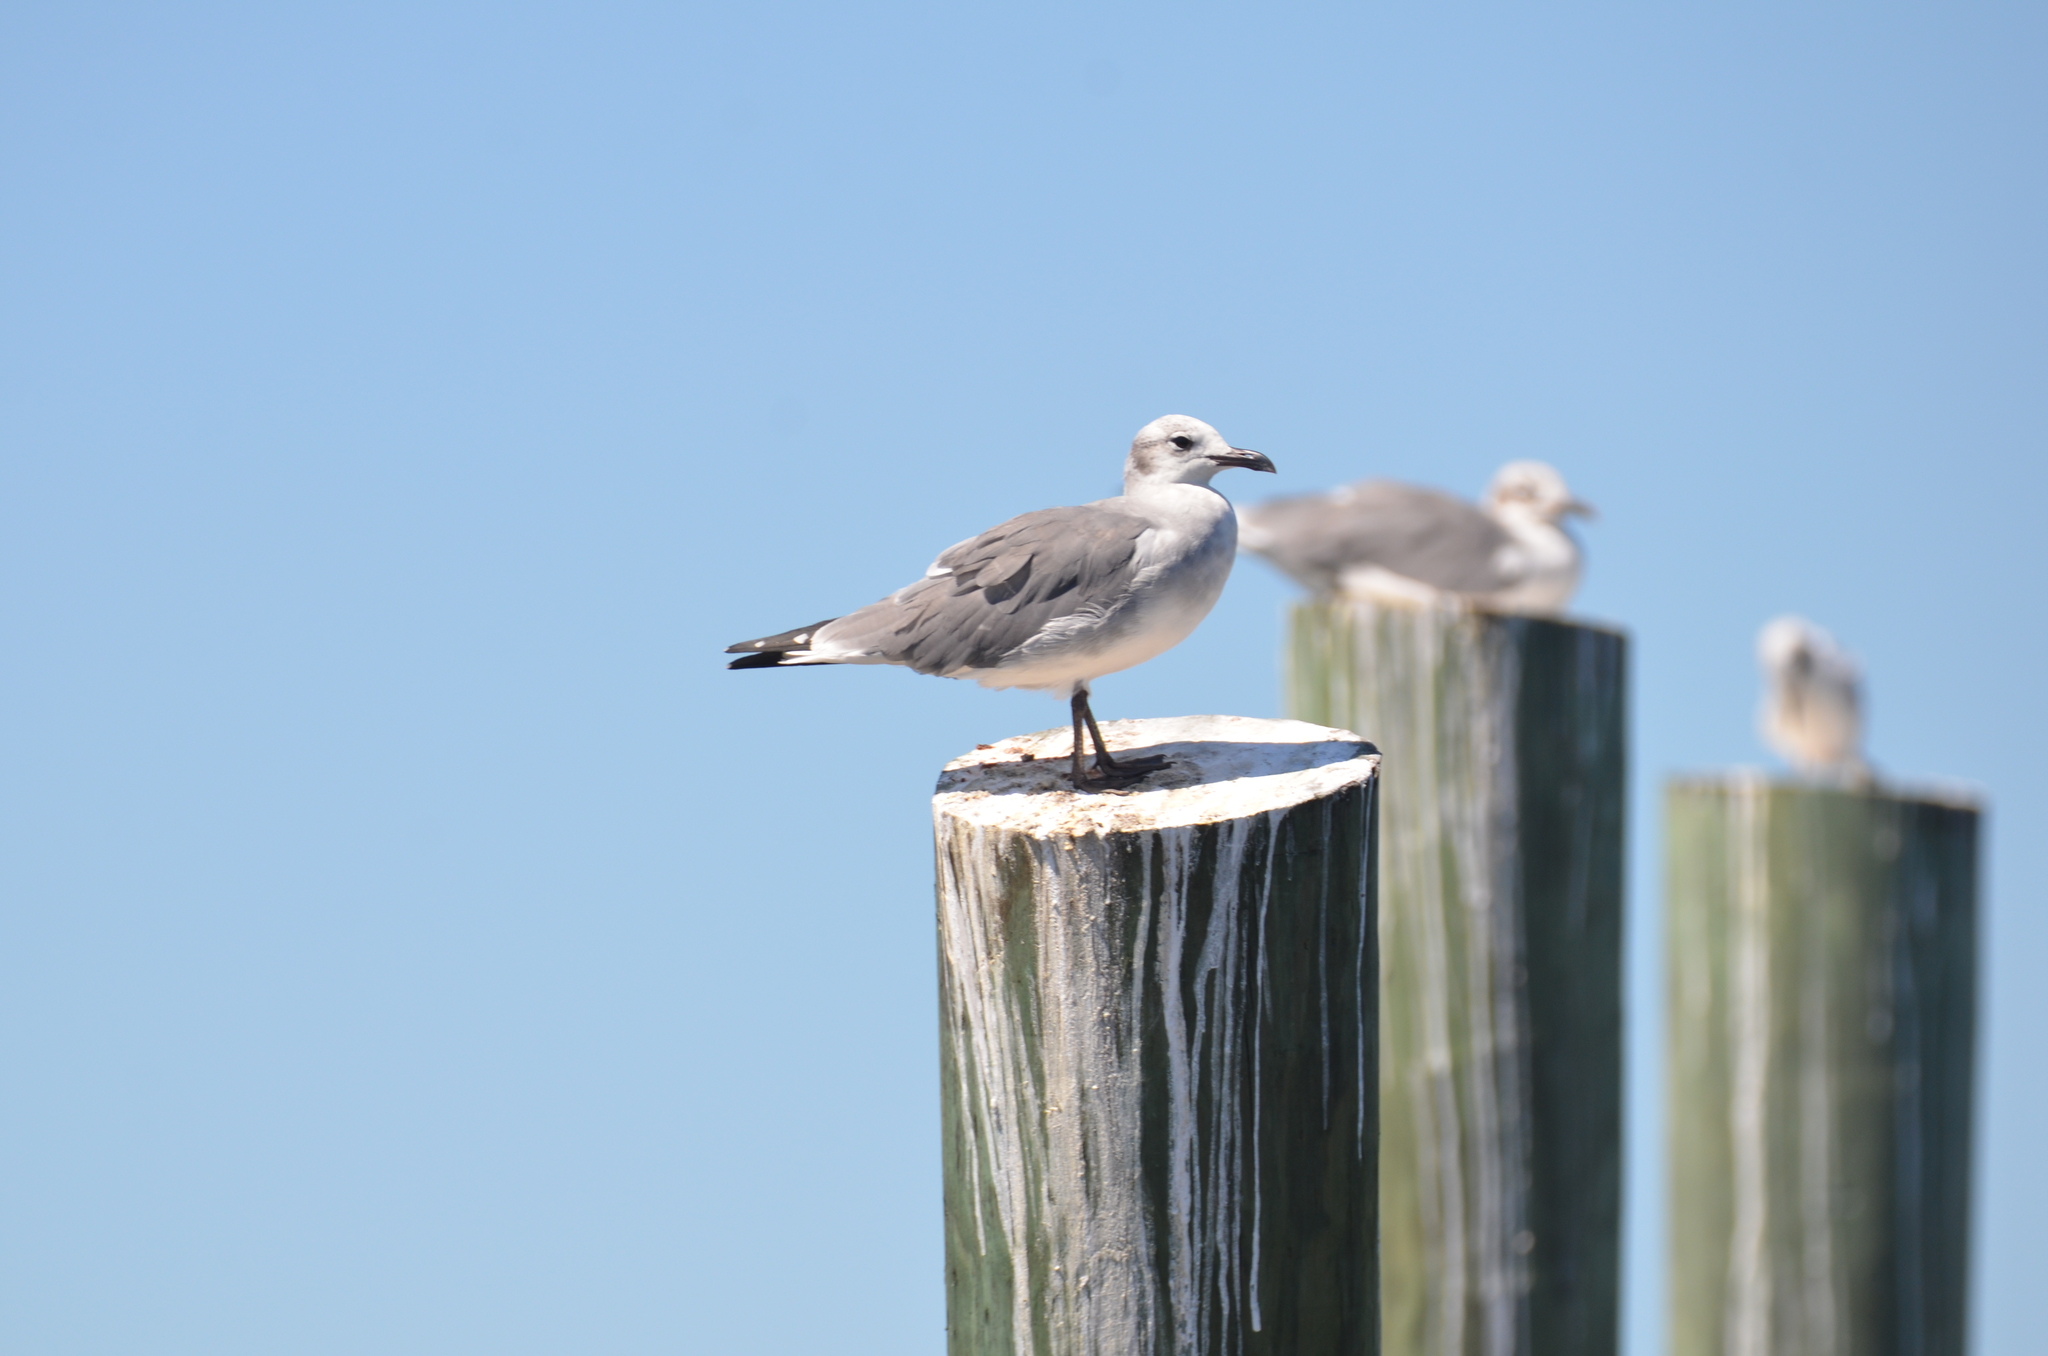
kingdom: Animalia
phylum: Chordata
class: Aves
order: Charadriiformes
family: Laridae
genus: Leucophaeus
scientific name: Leucophaeus atricilla
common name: Laughing gull
